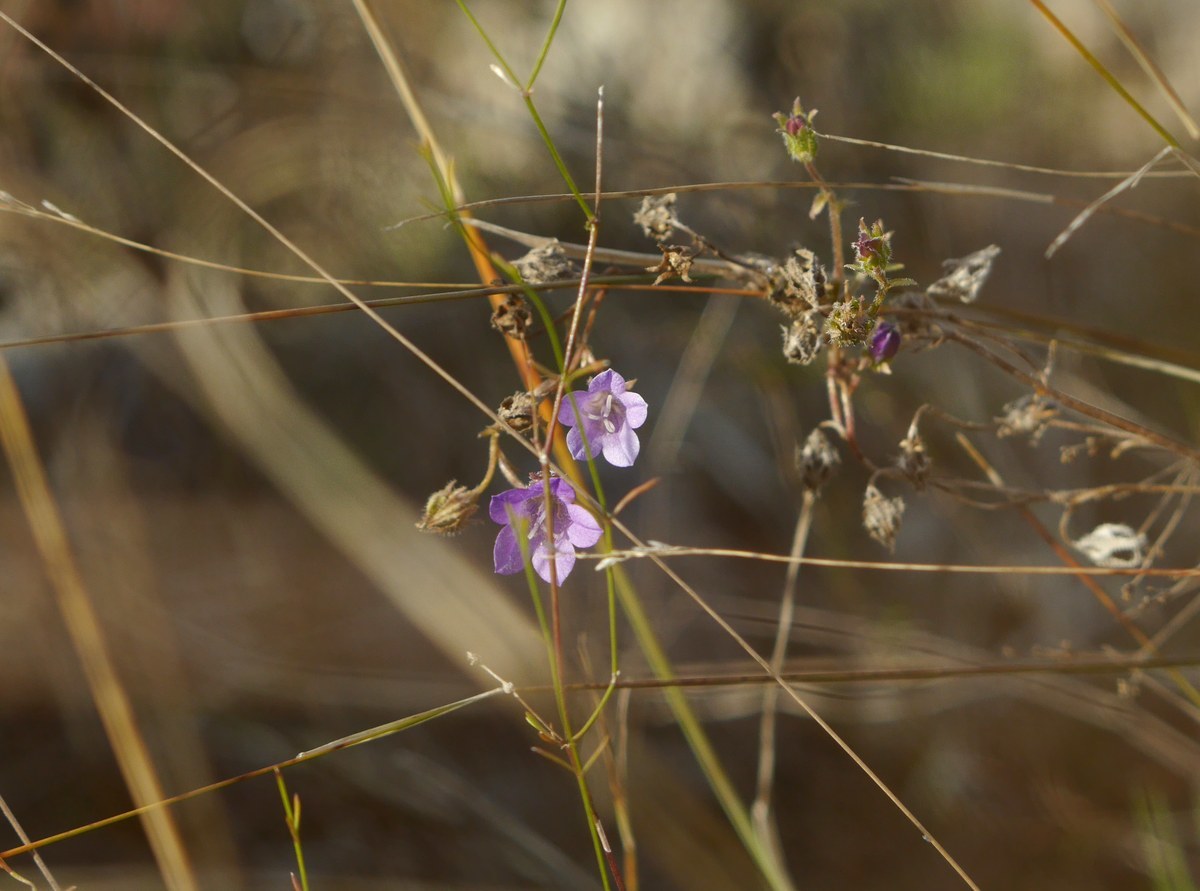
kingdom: Plantae
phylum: Tracheophyta
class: Magnoliopsida
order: Asterales
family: Campanulaceae
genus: Campanula
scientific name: Campanula sibirica
